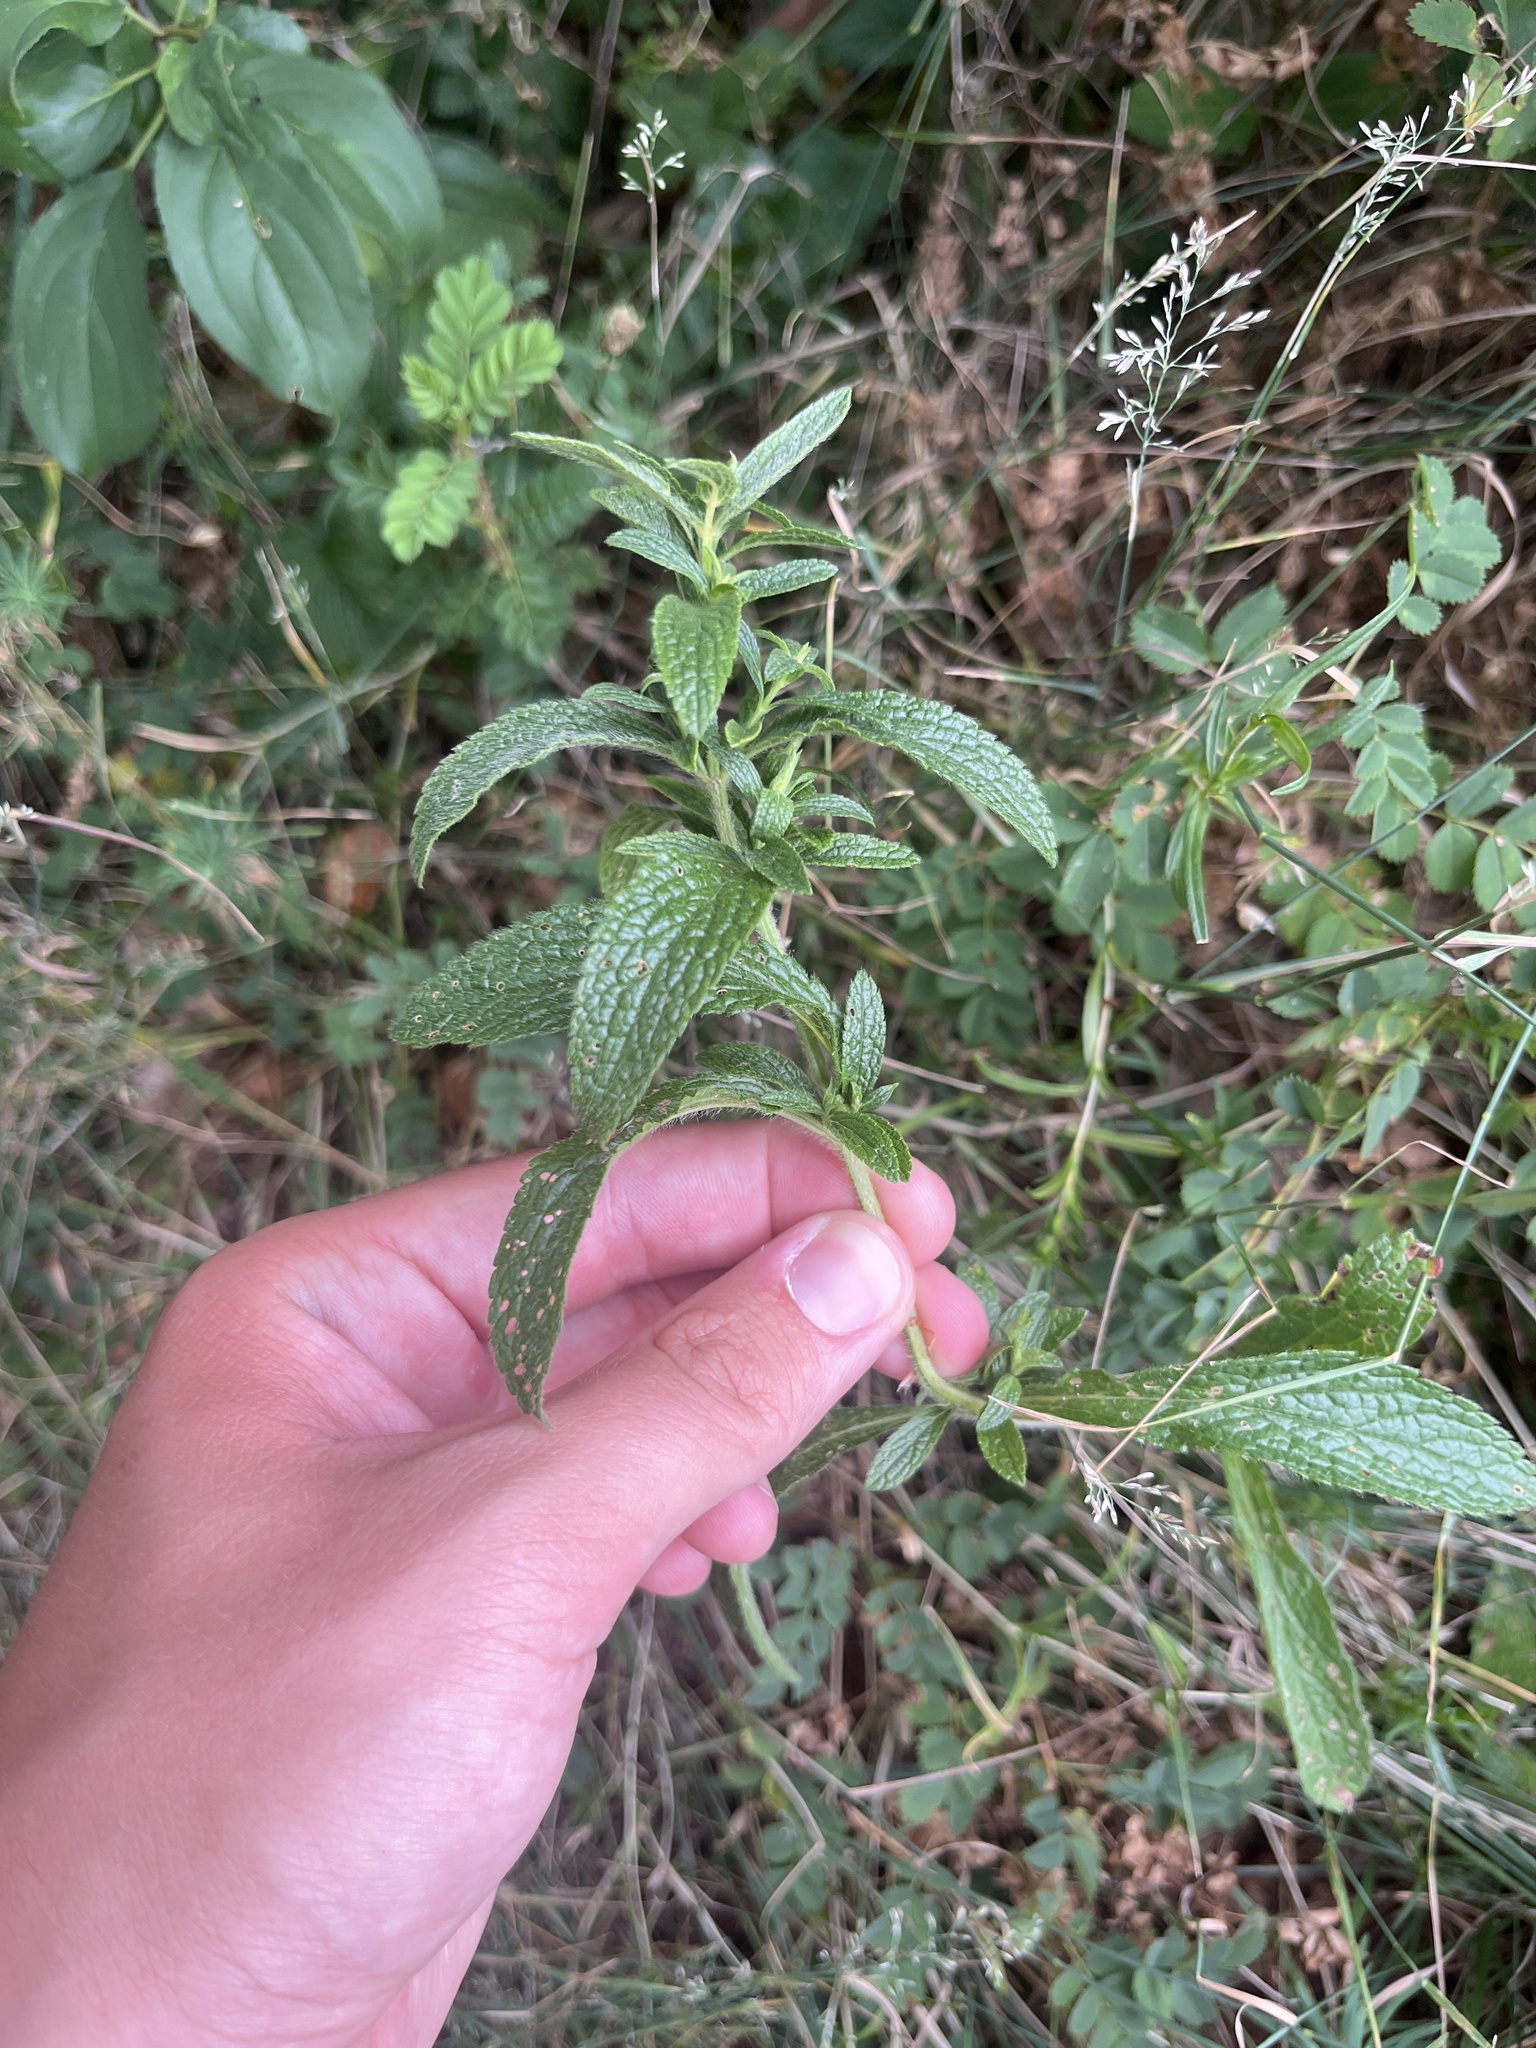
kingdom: Plantae
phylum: Tracheophyta
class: Magnoliopsida
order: Lamiales
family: Lamiaceae
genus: Stachys
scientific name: Stachys recta
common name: Perennial yellow-woundwort
